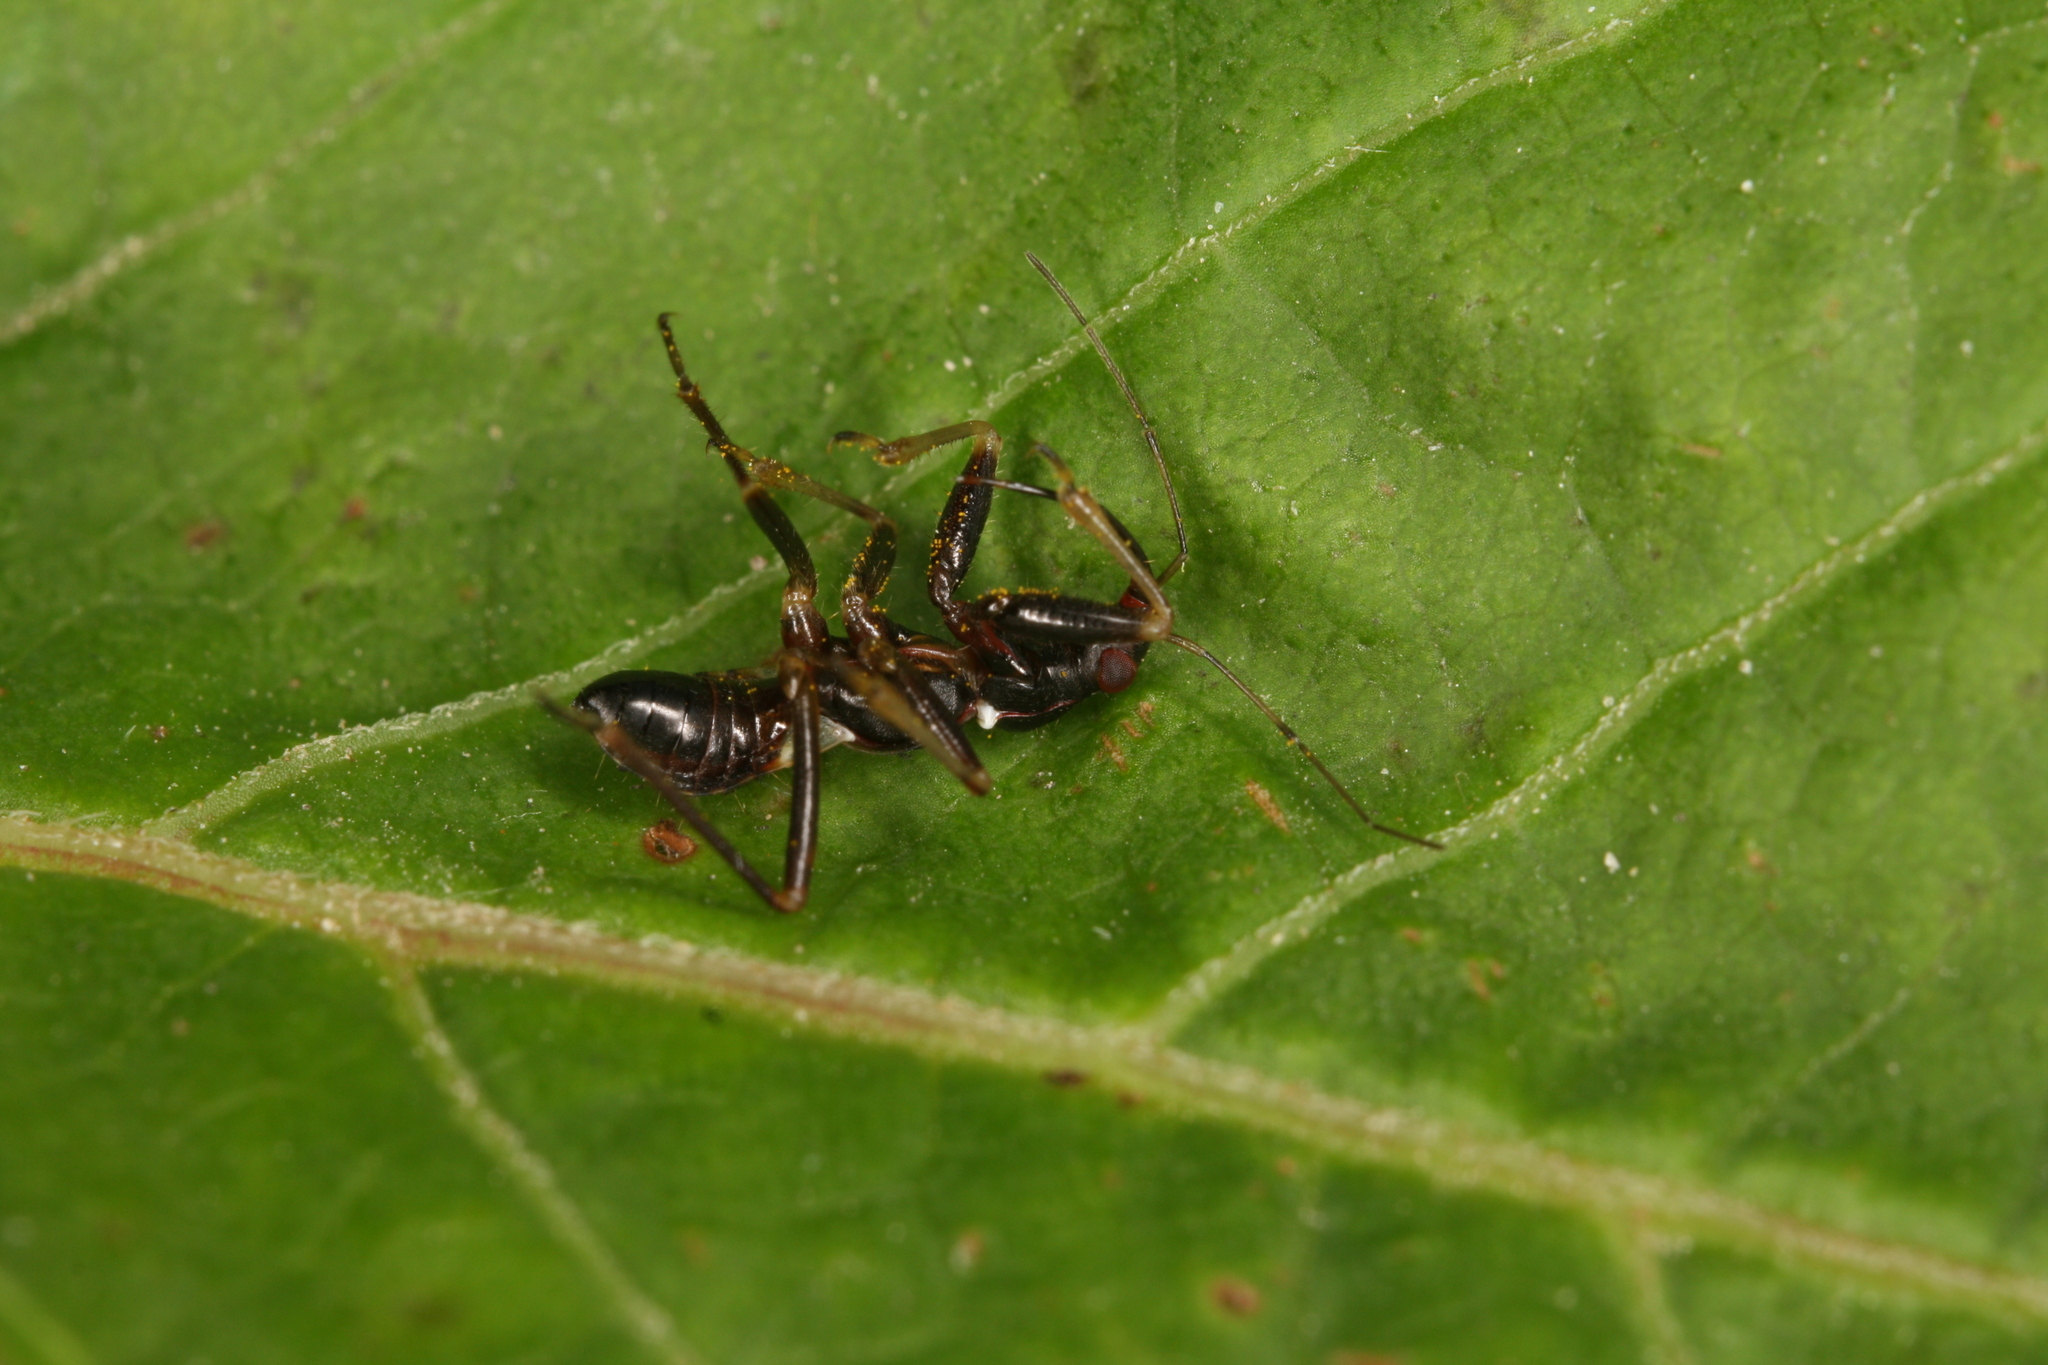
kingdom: Animalia
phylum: Arthropoda
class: Insecta
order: Hemiptera
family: Nabidae
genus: Himacerus
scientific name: Himacerus mirmicoides
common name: Ant damsel bug
